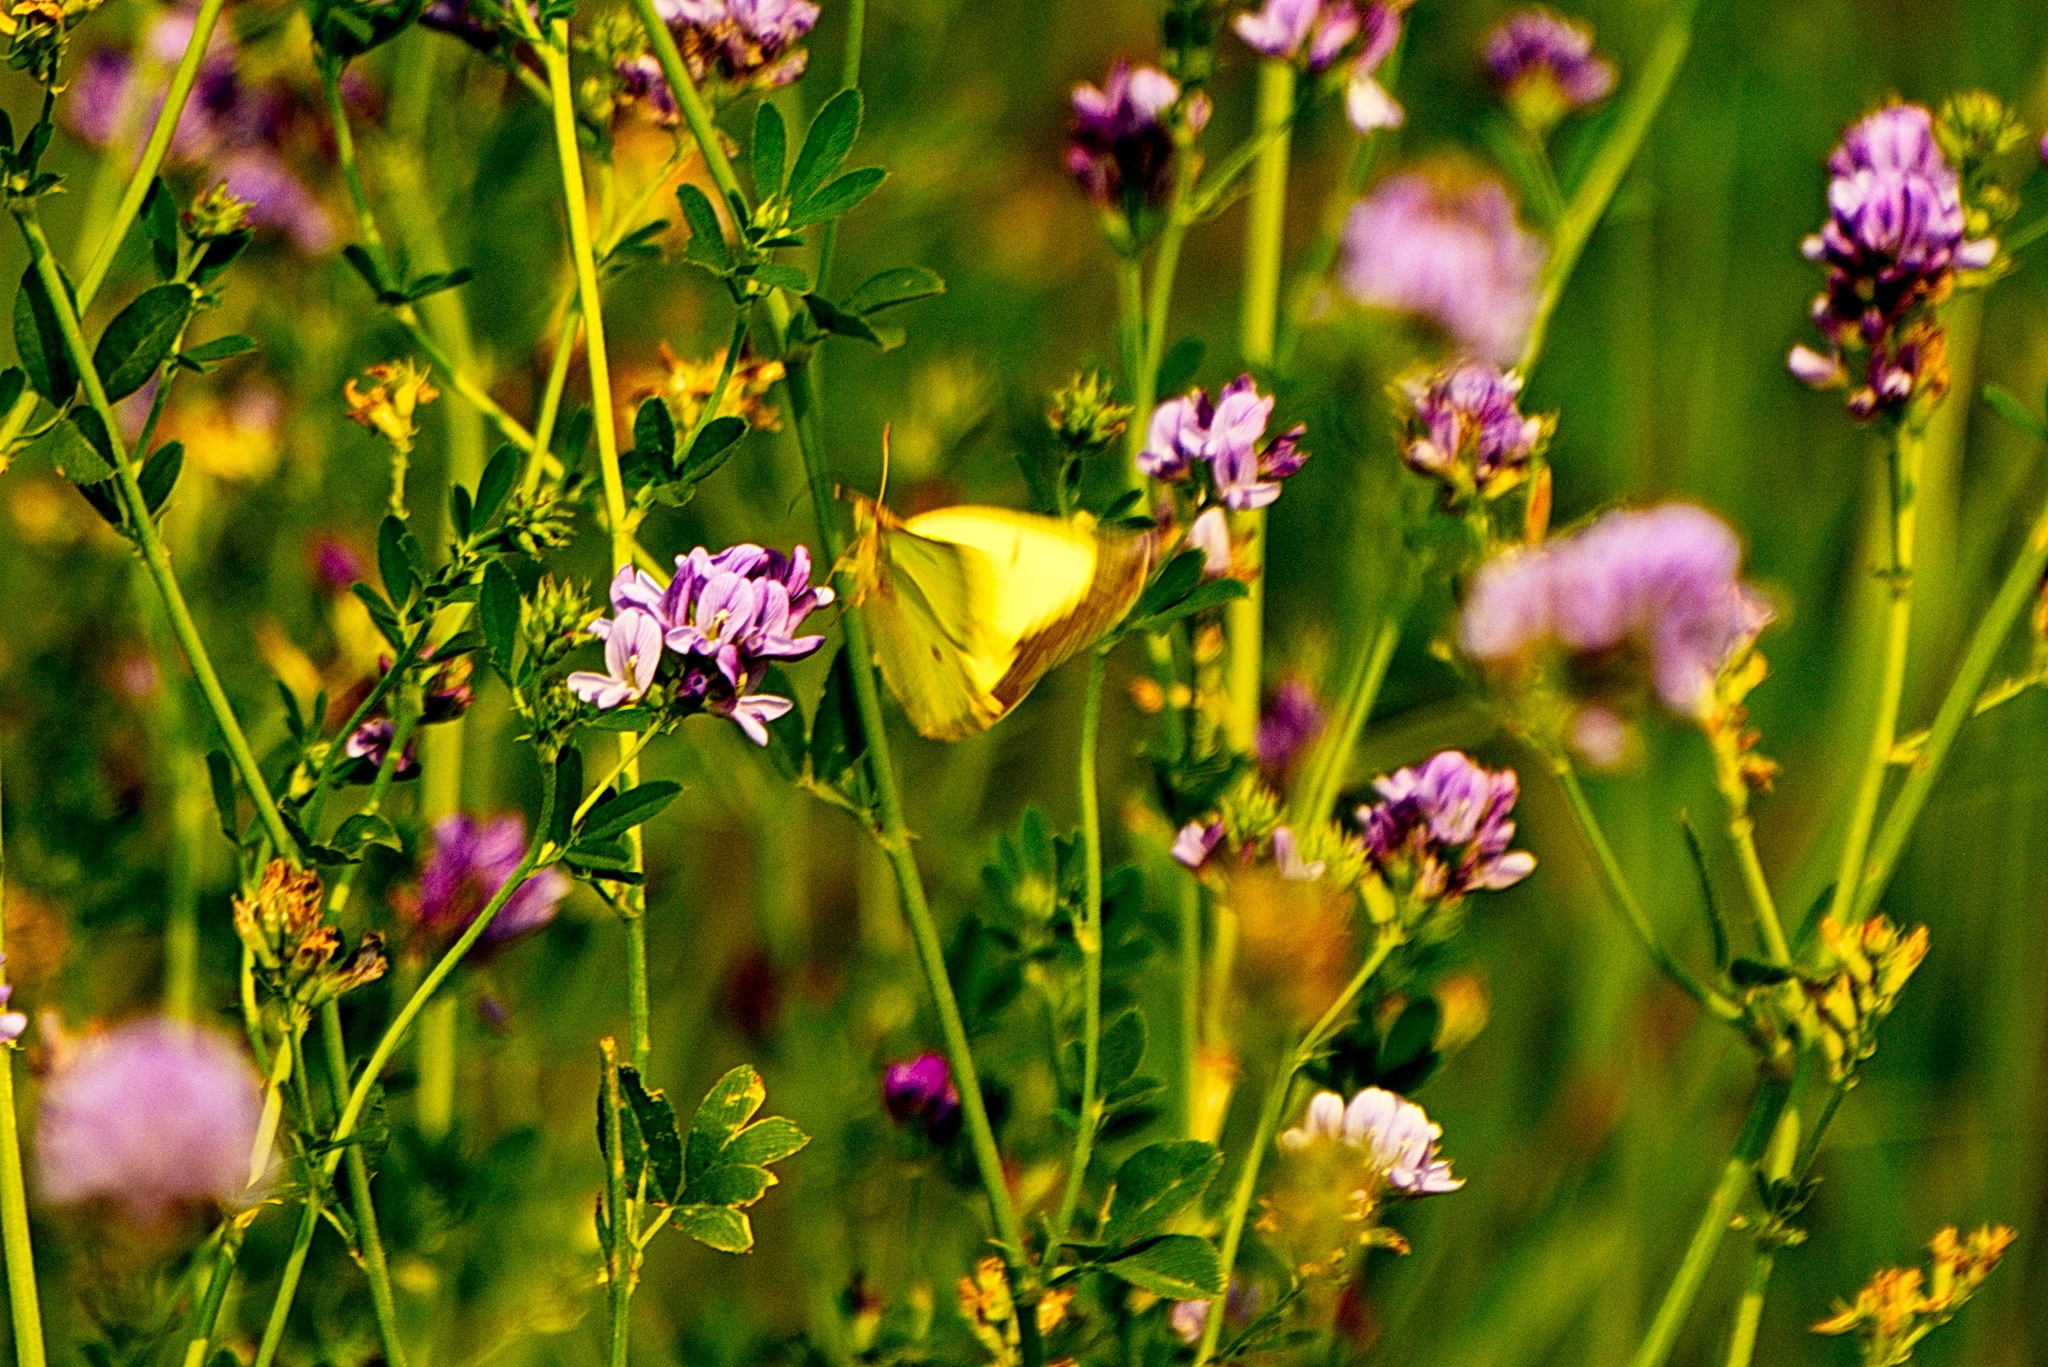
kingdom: Animalia
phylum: Arthropoda
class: Insecta
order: Lepidoptera
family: Pieridae
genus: Colias
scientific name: Colias philodice
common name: Clouded sulphur
